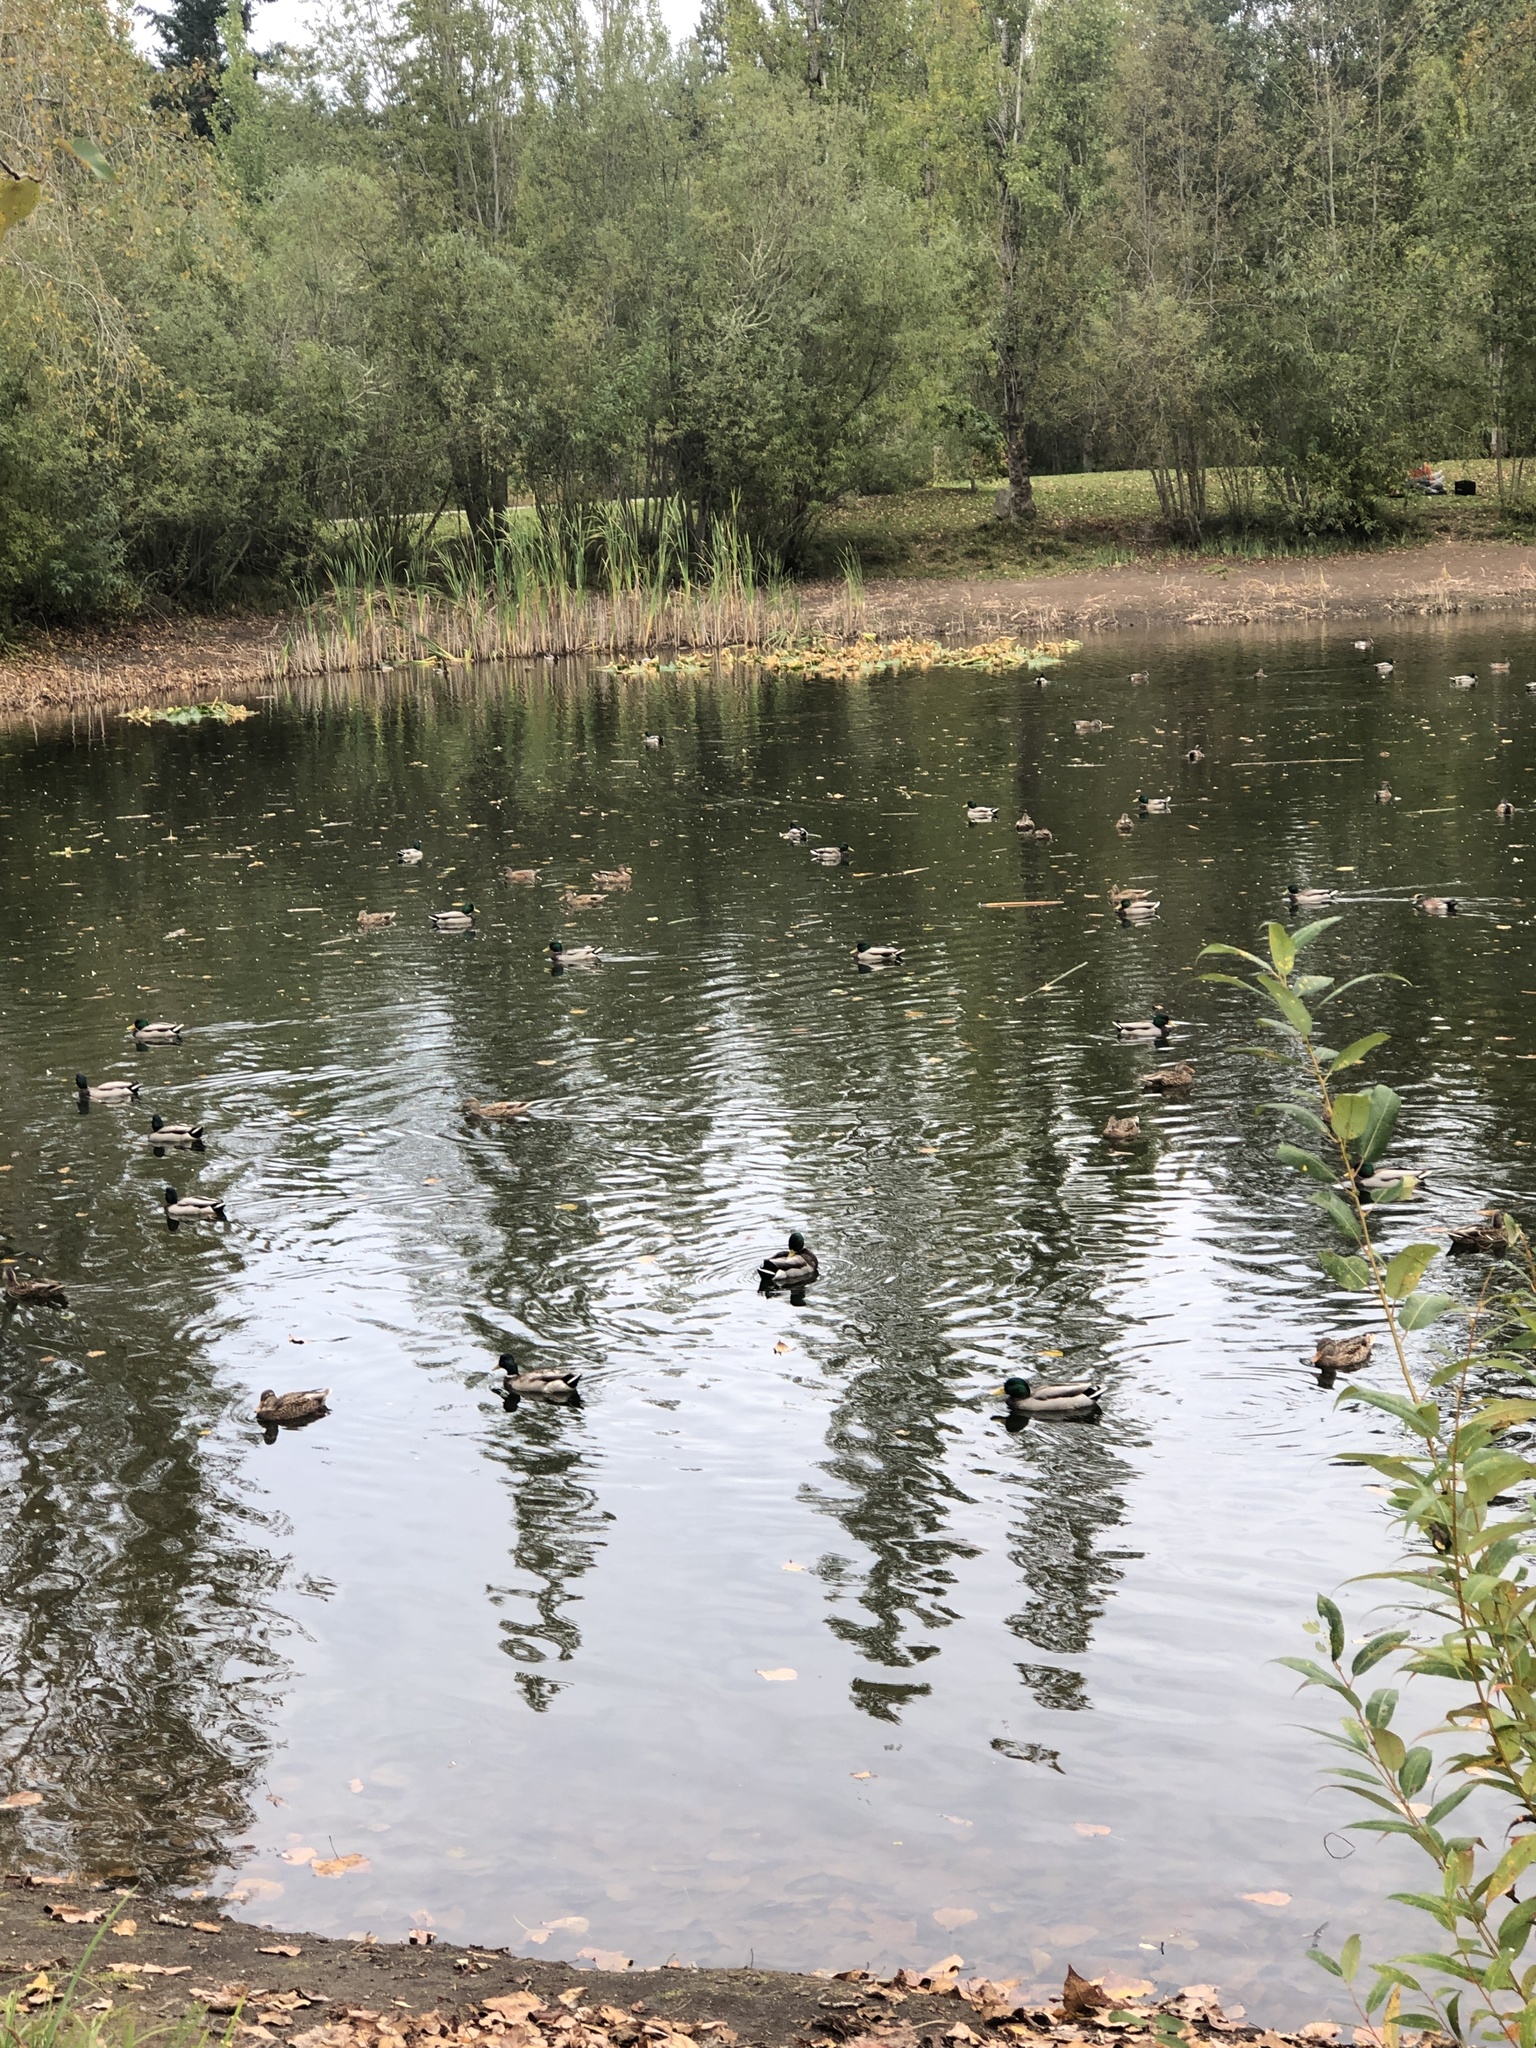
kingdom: Animalia
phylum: Chordata
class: Aves
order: Anseriformes
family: Anatidae
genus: Anas
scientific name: Anas platyrhynchos
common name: Mallard
